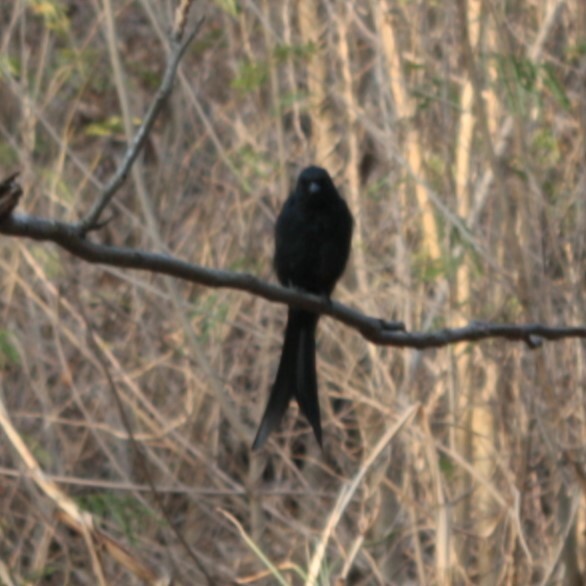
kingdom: Animalia
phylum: Chordata
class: Aves
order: Passeriformes
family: Dicruridae
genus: Dicrurus
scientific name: Dicrurus macrocercus
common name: Black drongo
